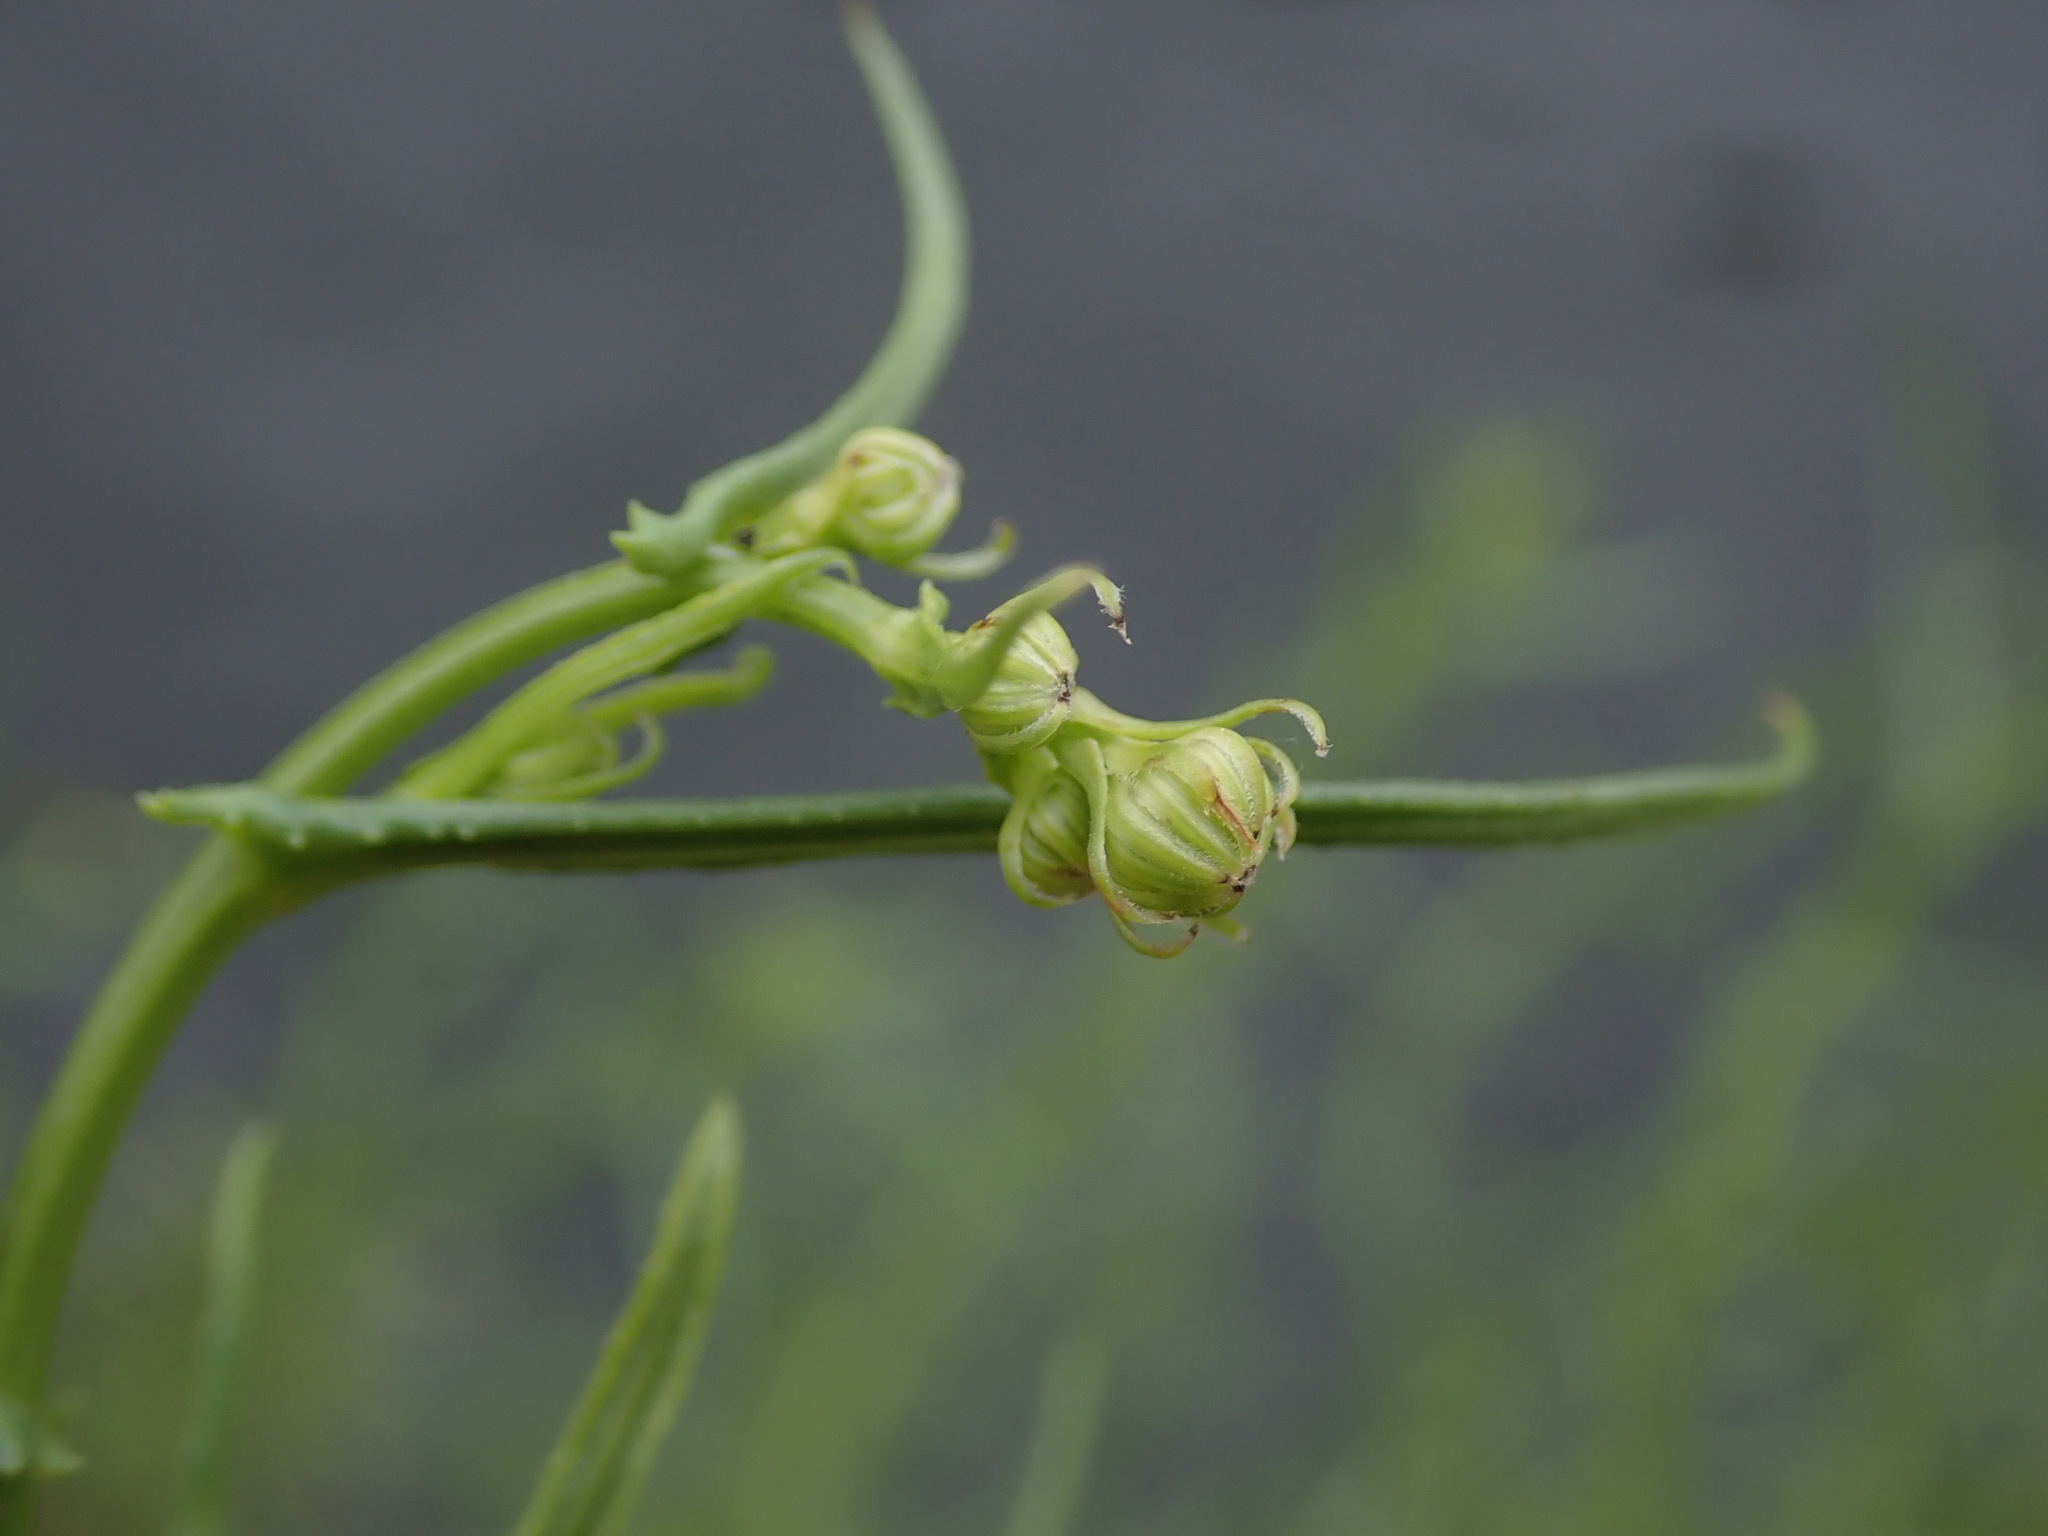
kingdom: Plantae
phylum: Tracheophyta
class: Magnoliopsida
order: Asterales
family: Asteraceae
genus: Senecio
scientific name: Senecio inaequidens
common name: Narrow-leaved ragwort
